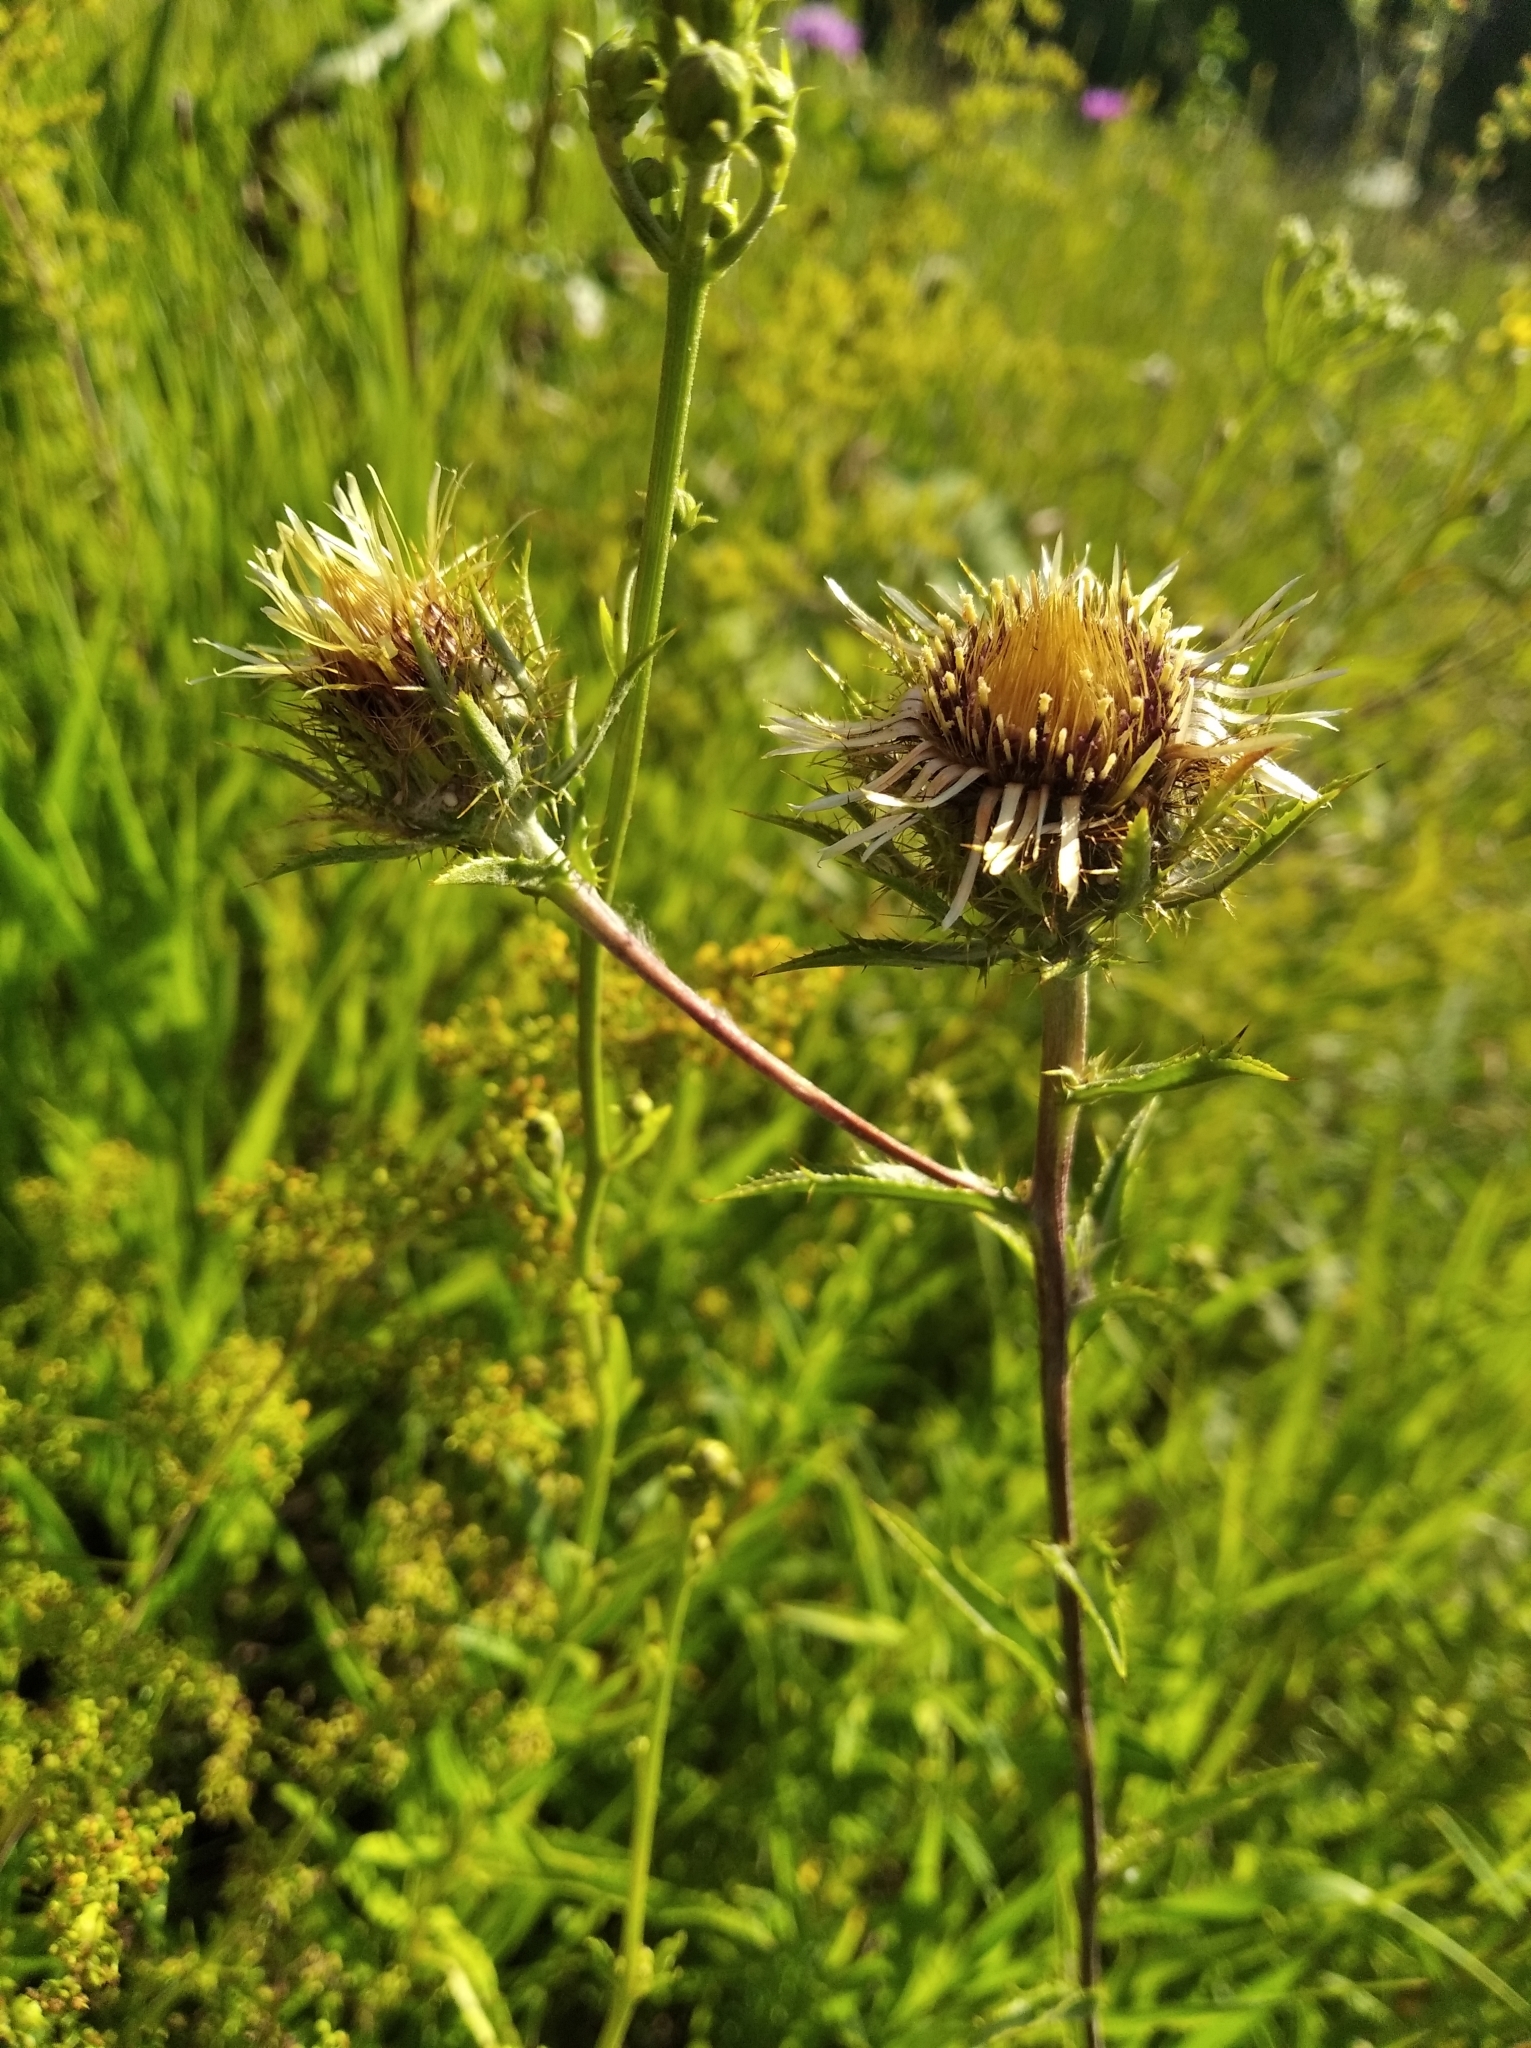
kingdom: Plantae
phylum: Tracheophyta
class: Magnoliopsida
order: Asterales
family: Asteraceae
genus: Carlina
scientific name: Carlina biebersteinii
